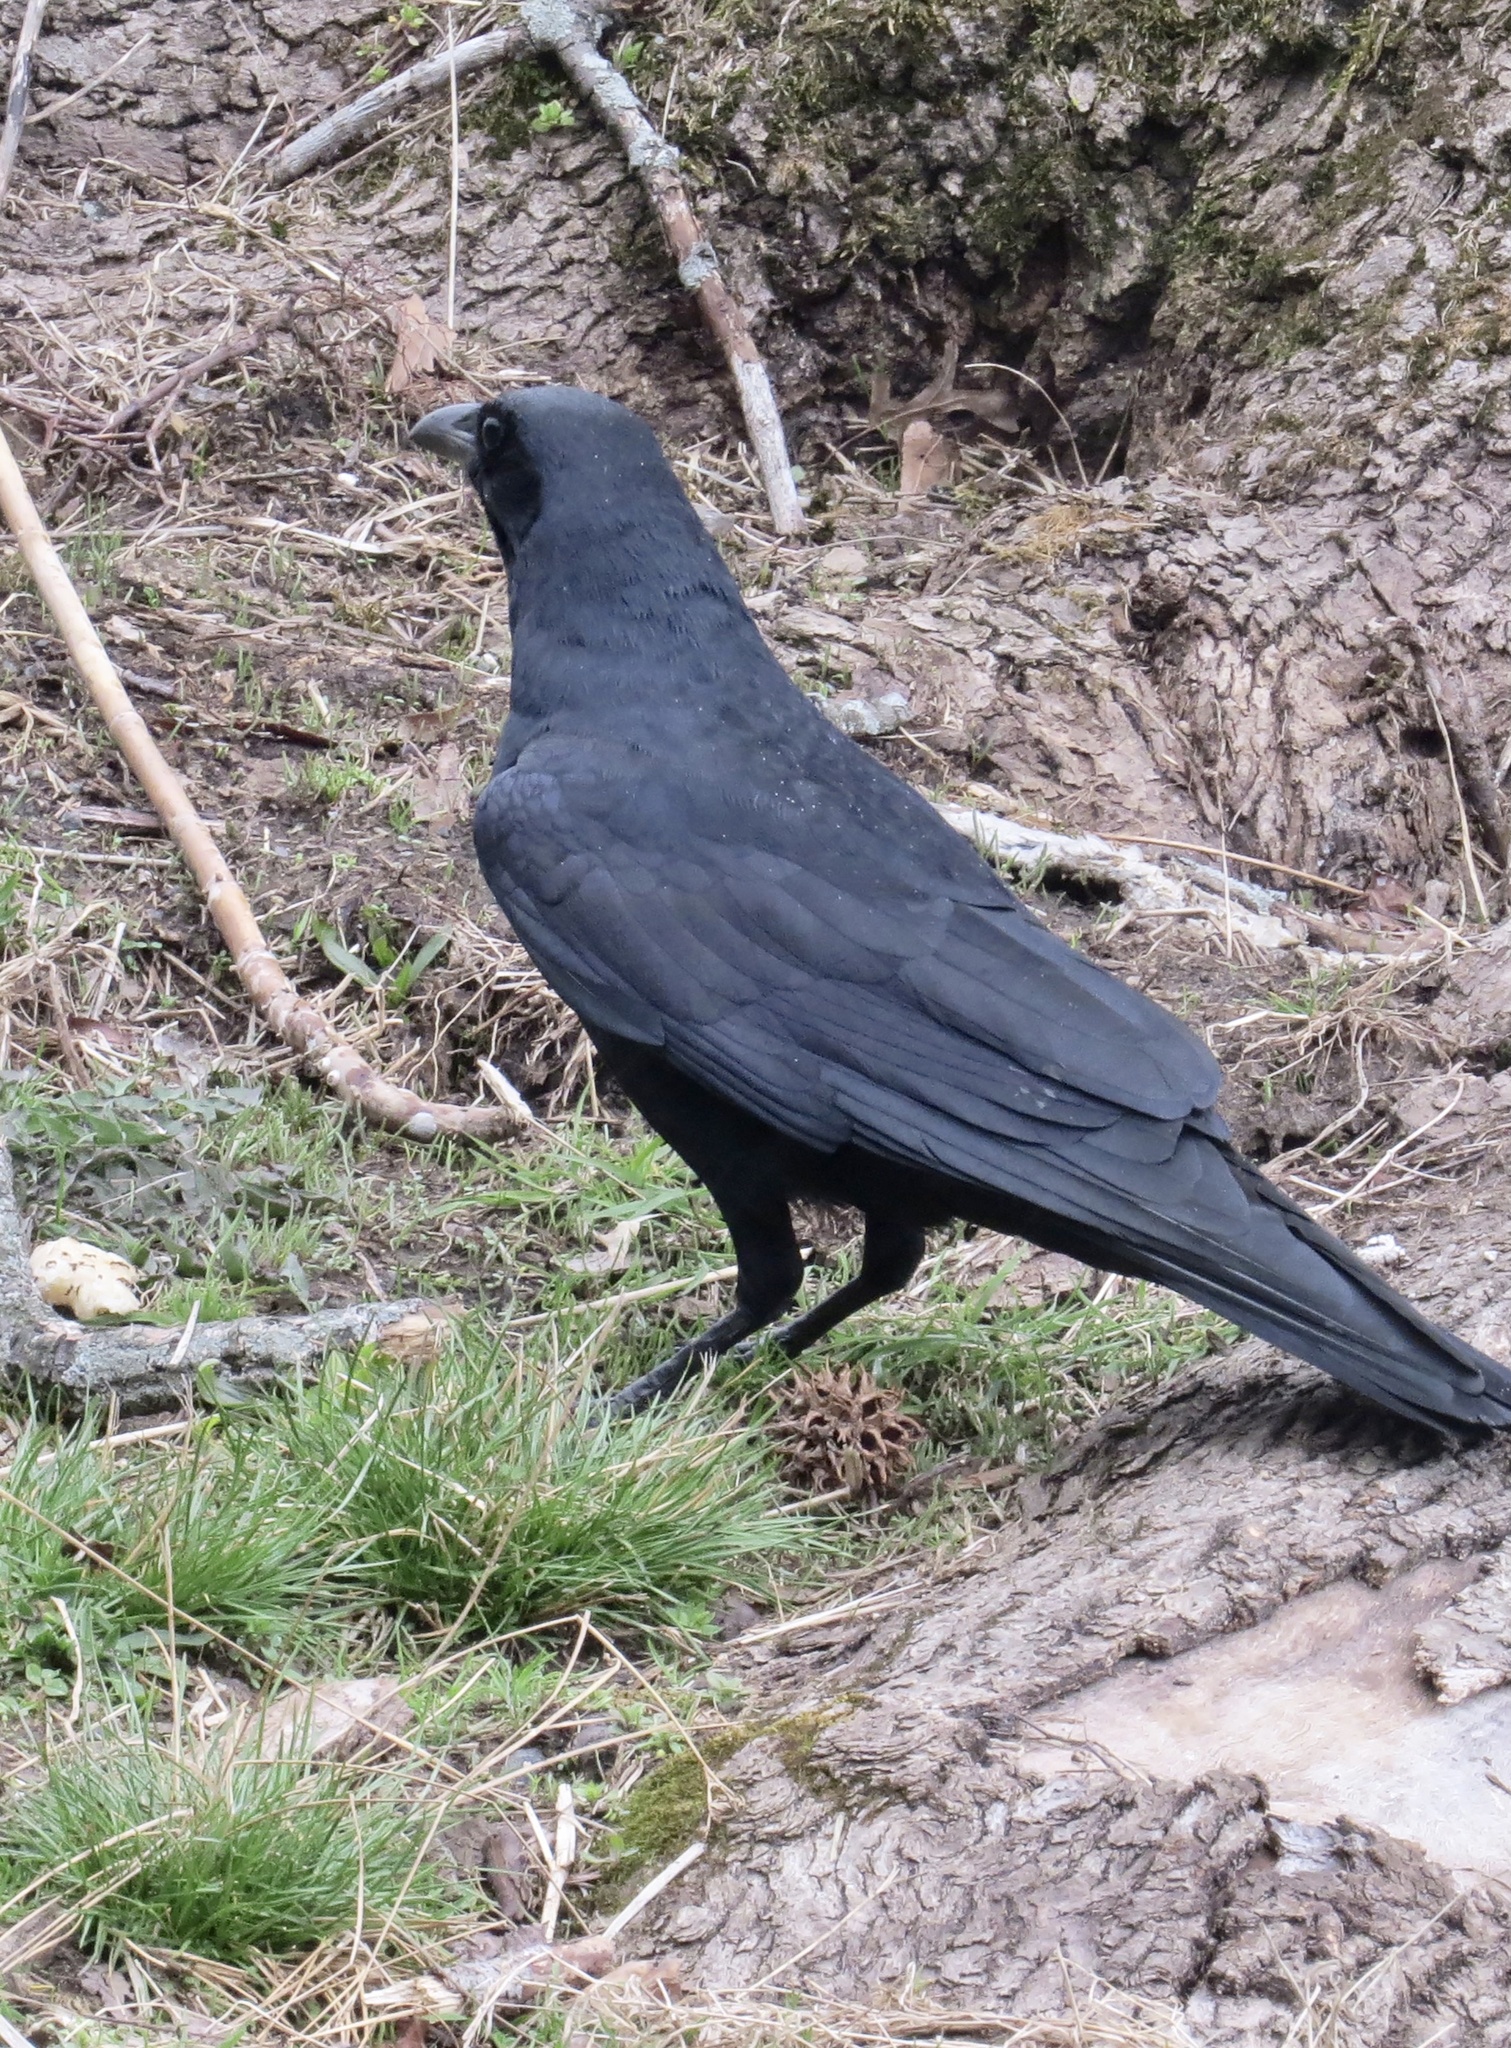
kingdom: Animalia
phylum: Chordata
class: Aves
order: Passeriformes
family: Corvidae
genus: Corvus
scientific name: Corvus
